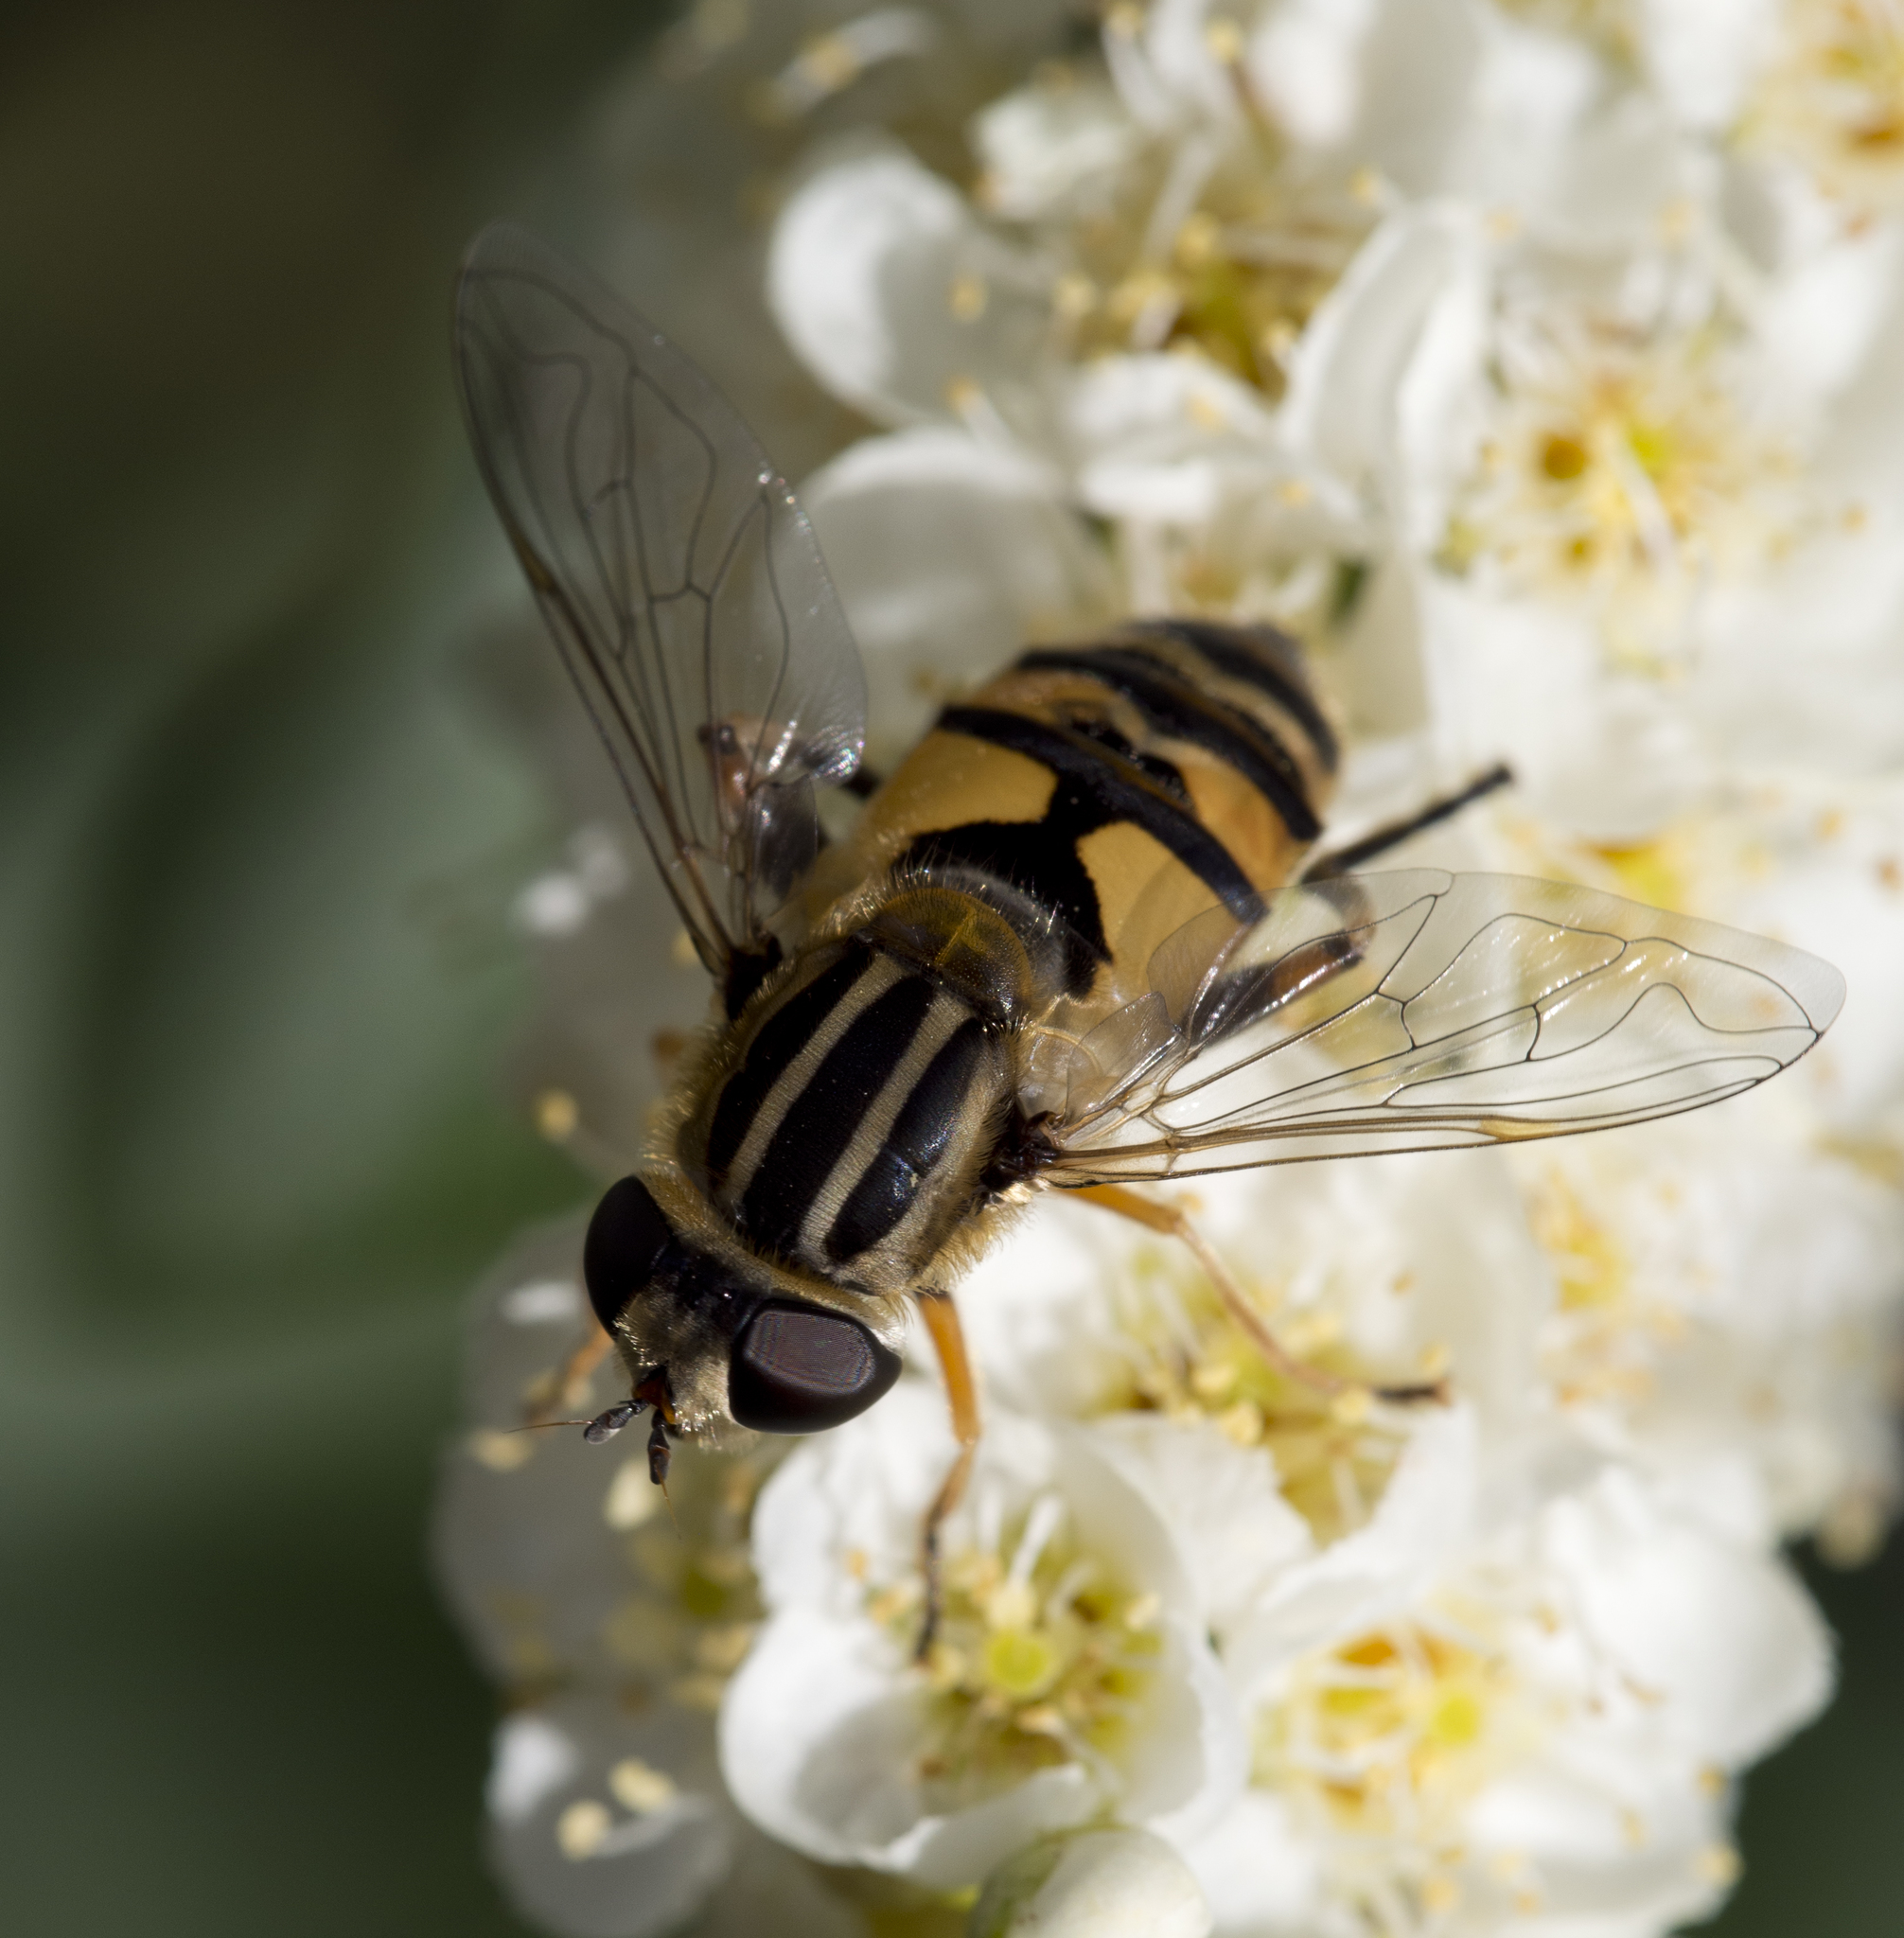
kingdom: Animalia
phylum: Arthropoda
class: Insecta
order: Diptera
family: Syrphidae
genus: Helophilus
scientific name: Helophilus latifrons
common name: Broad-headed marsh fly
